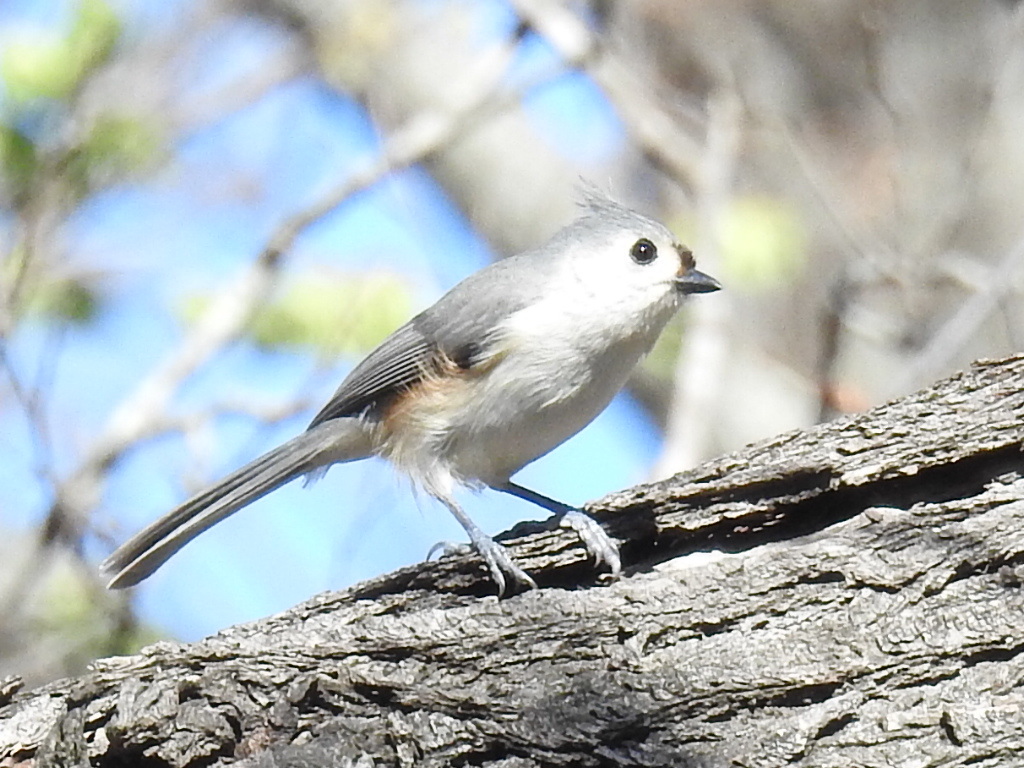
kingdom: Animalia
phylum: Chordata
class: Aves
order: Passeriformes
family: Paridae
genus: Baeolophus
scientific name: Baeolophus bicolor
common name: Tufted titmouse
